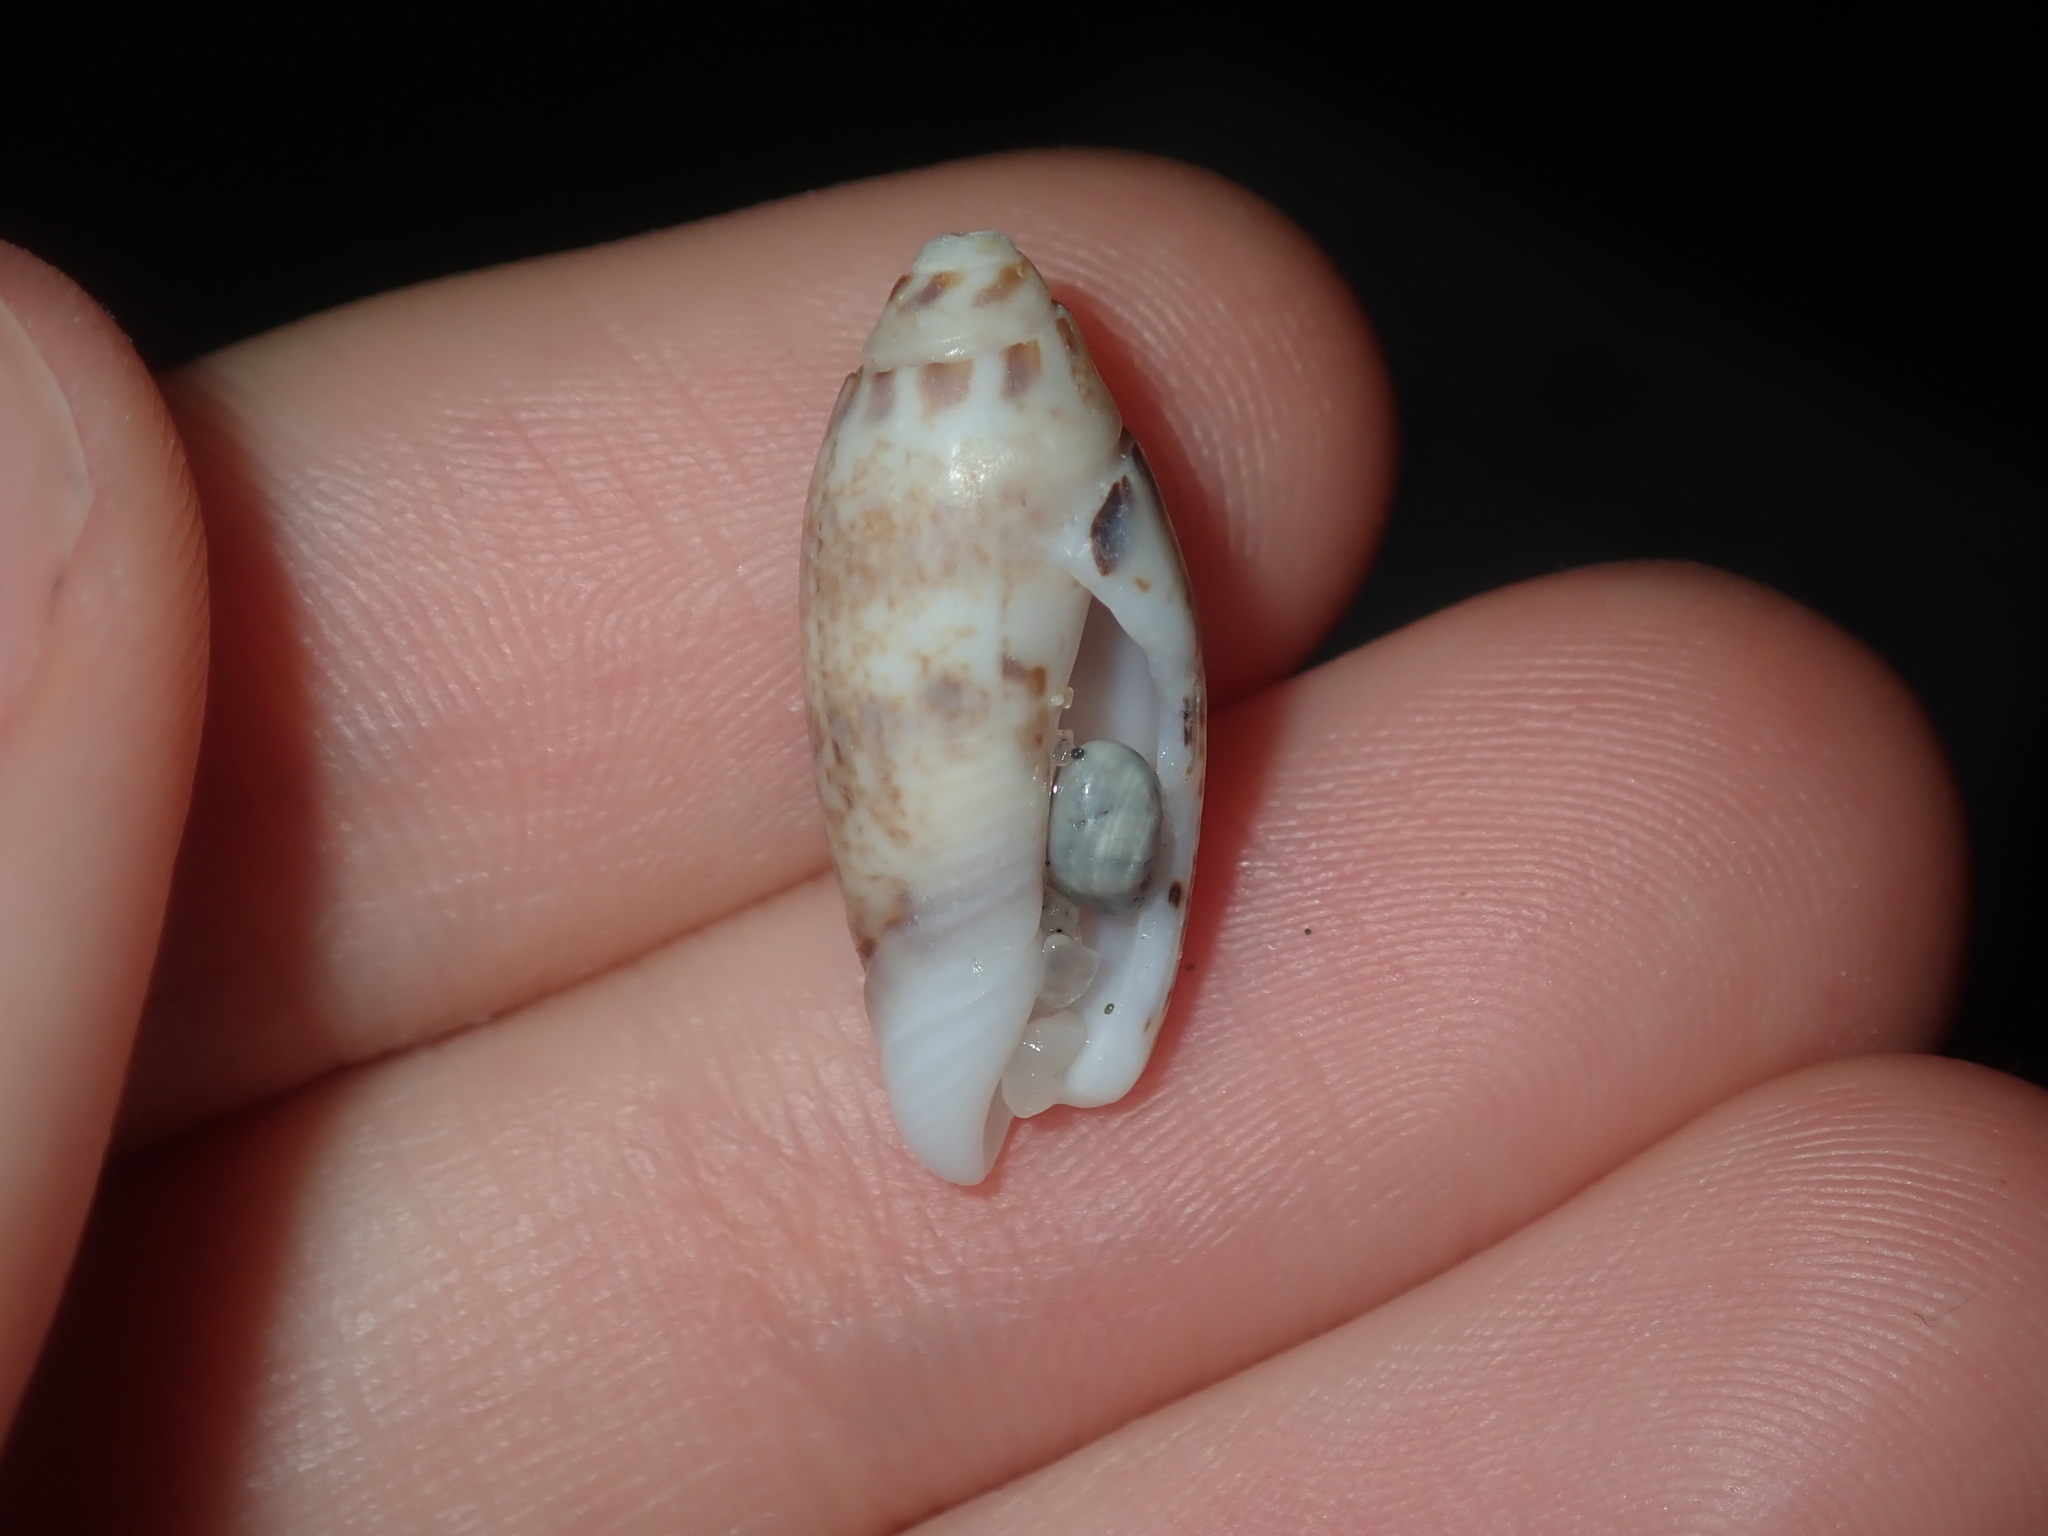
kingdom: Animalia
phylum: Mollusca
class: Gastropoda
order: Neogastropoda
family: Olividae
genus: Oliva
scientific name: Oliva australis
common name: Australian olive
